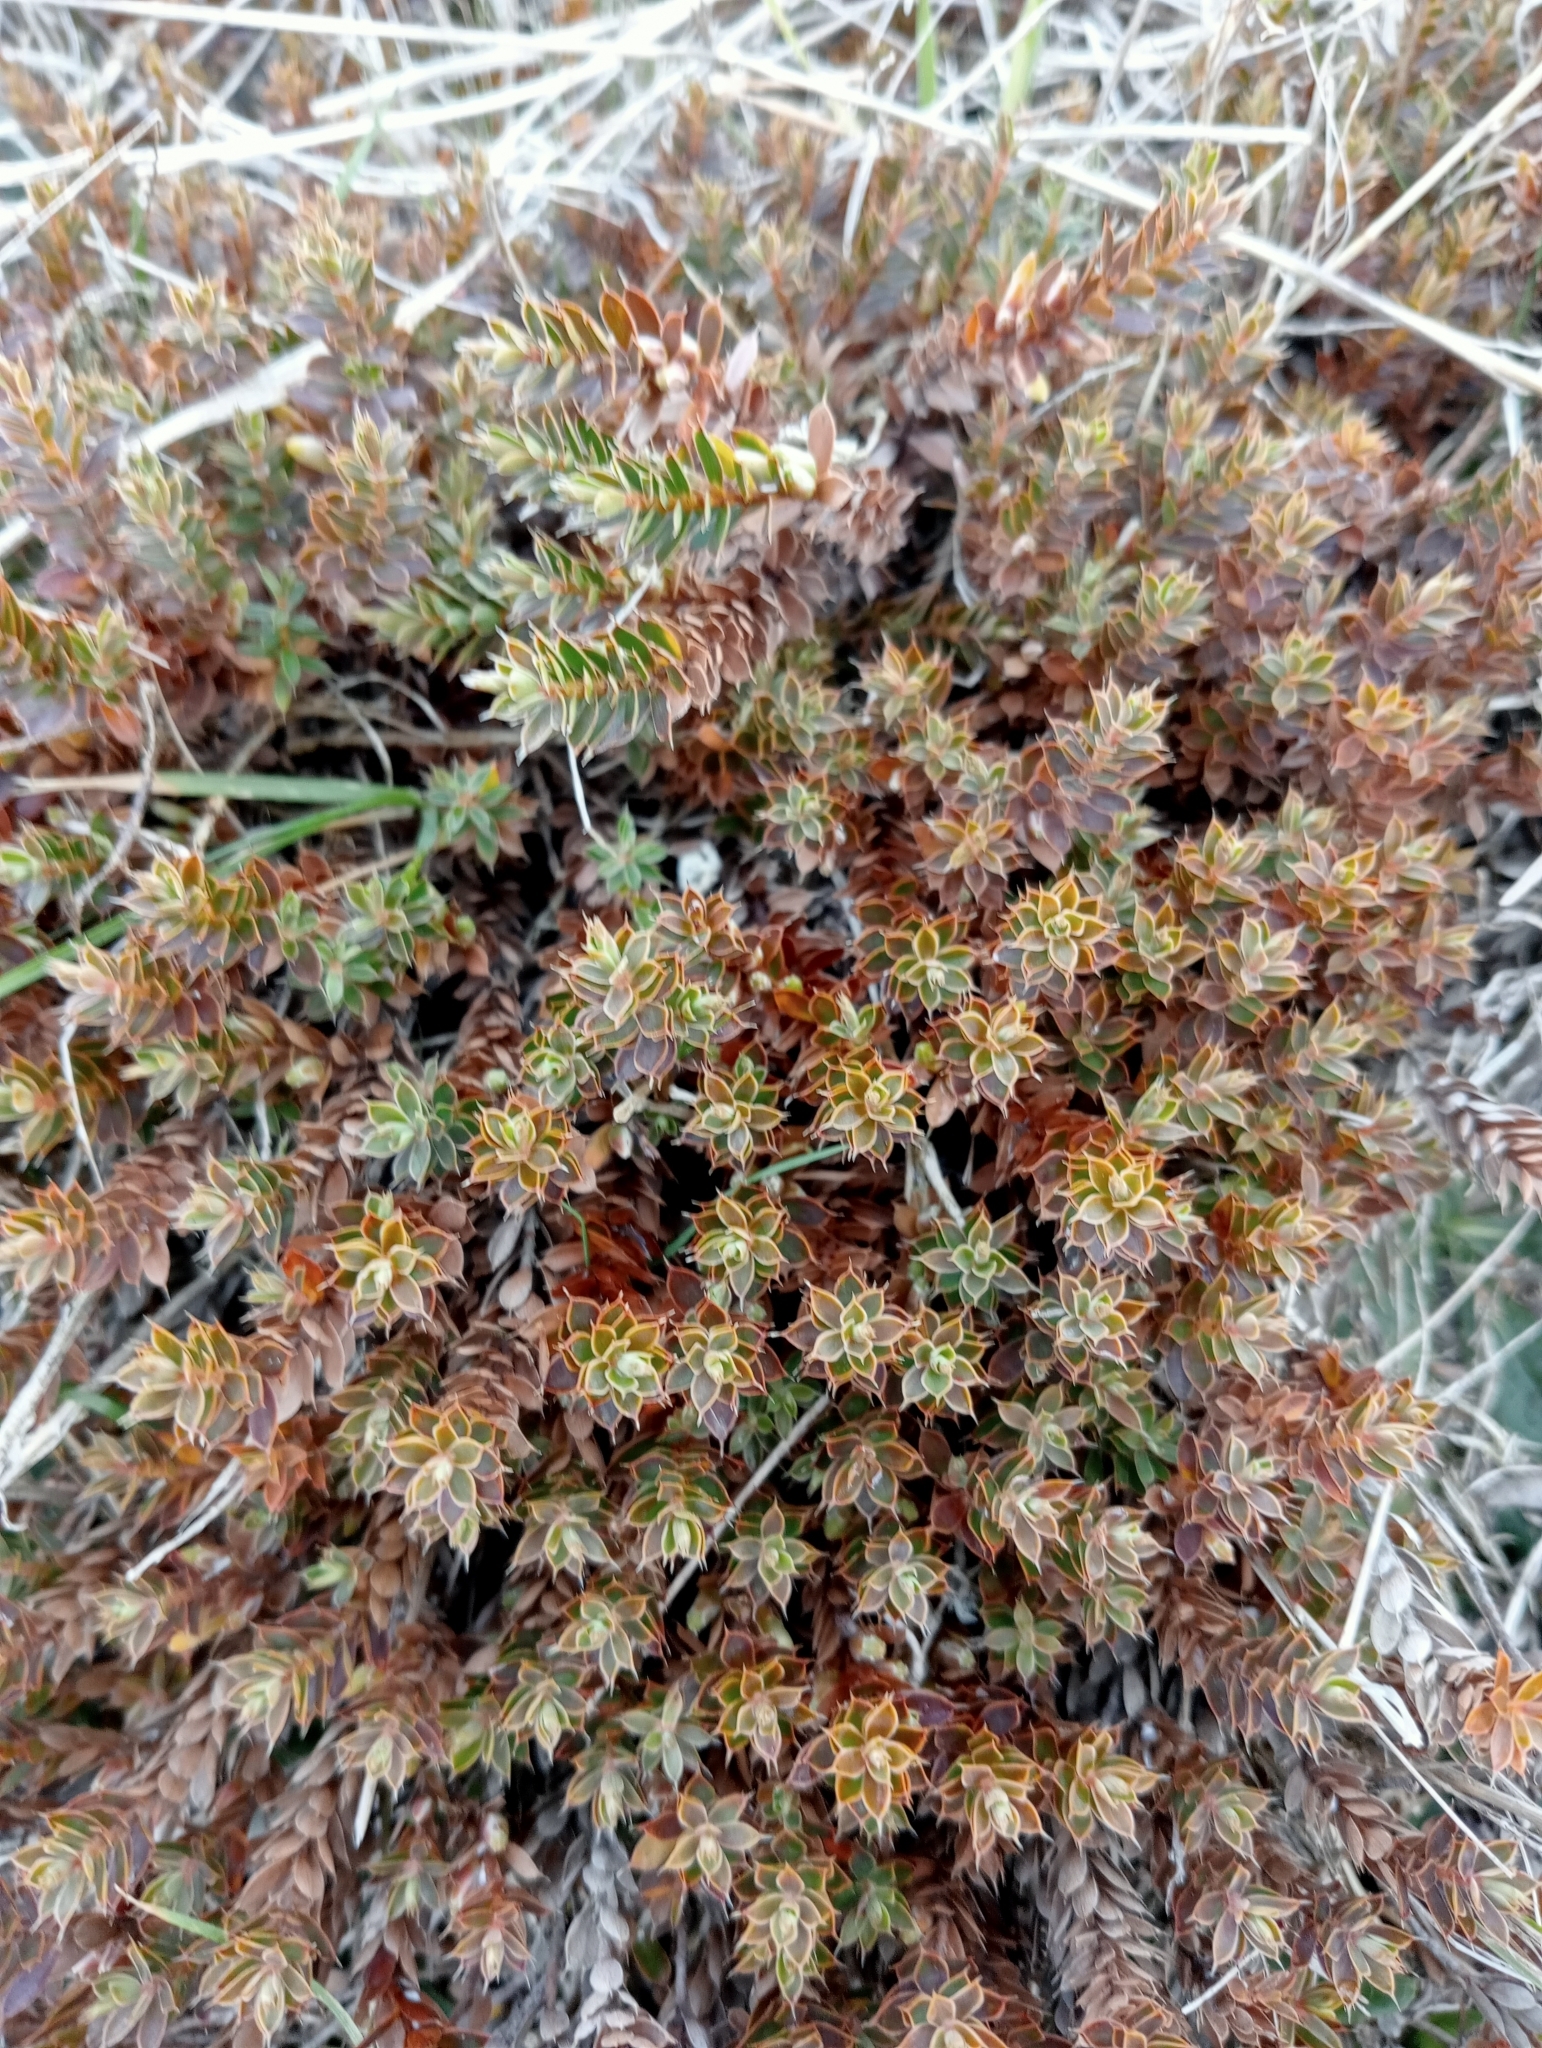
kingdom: Plantae
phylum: Tracheophyta
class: Magnoliopsida
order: Ericales
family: Ericaceae
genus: Styphelia
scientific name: Styphelia nesophila
